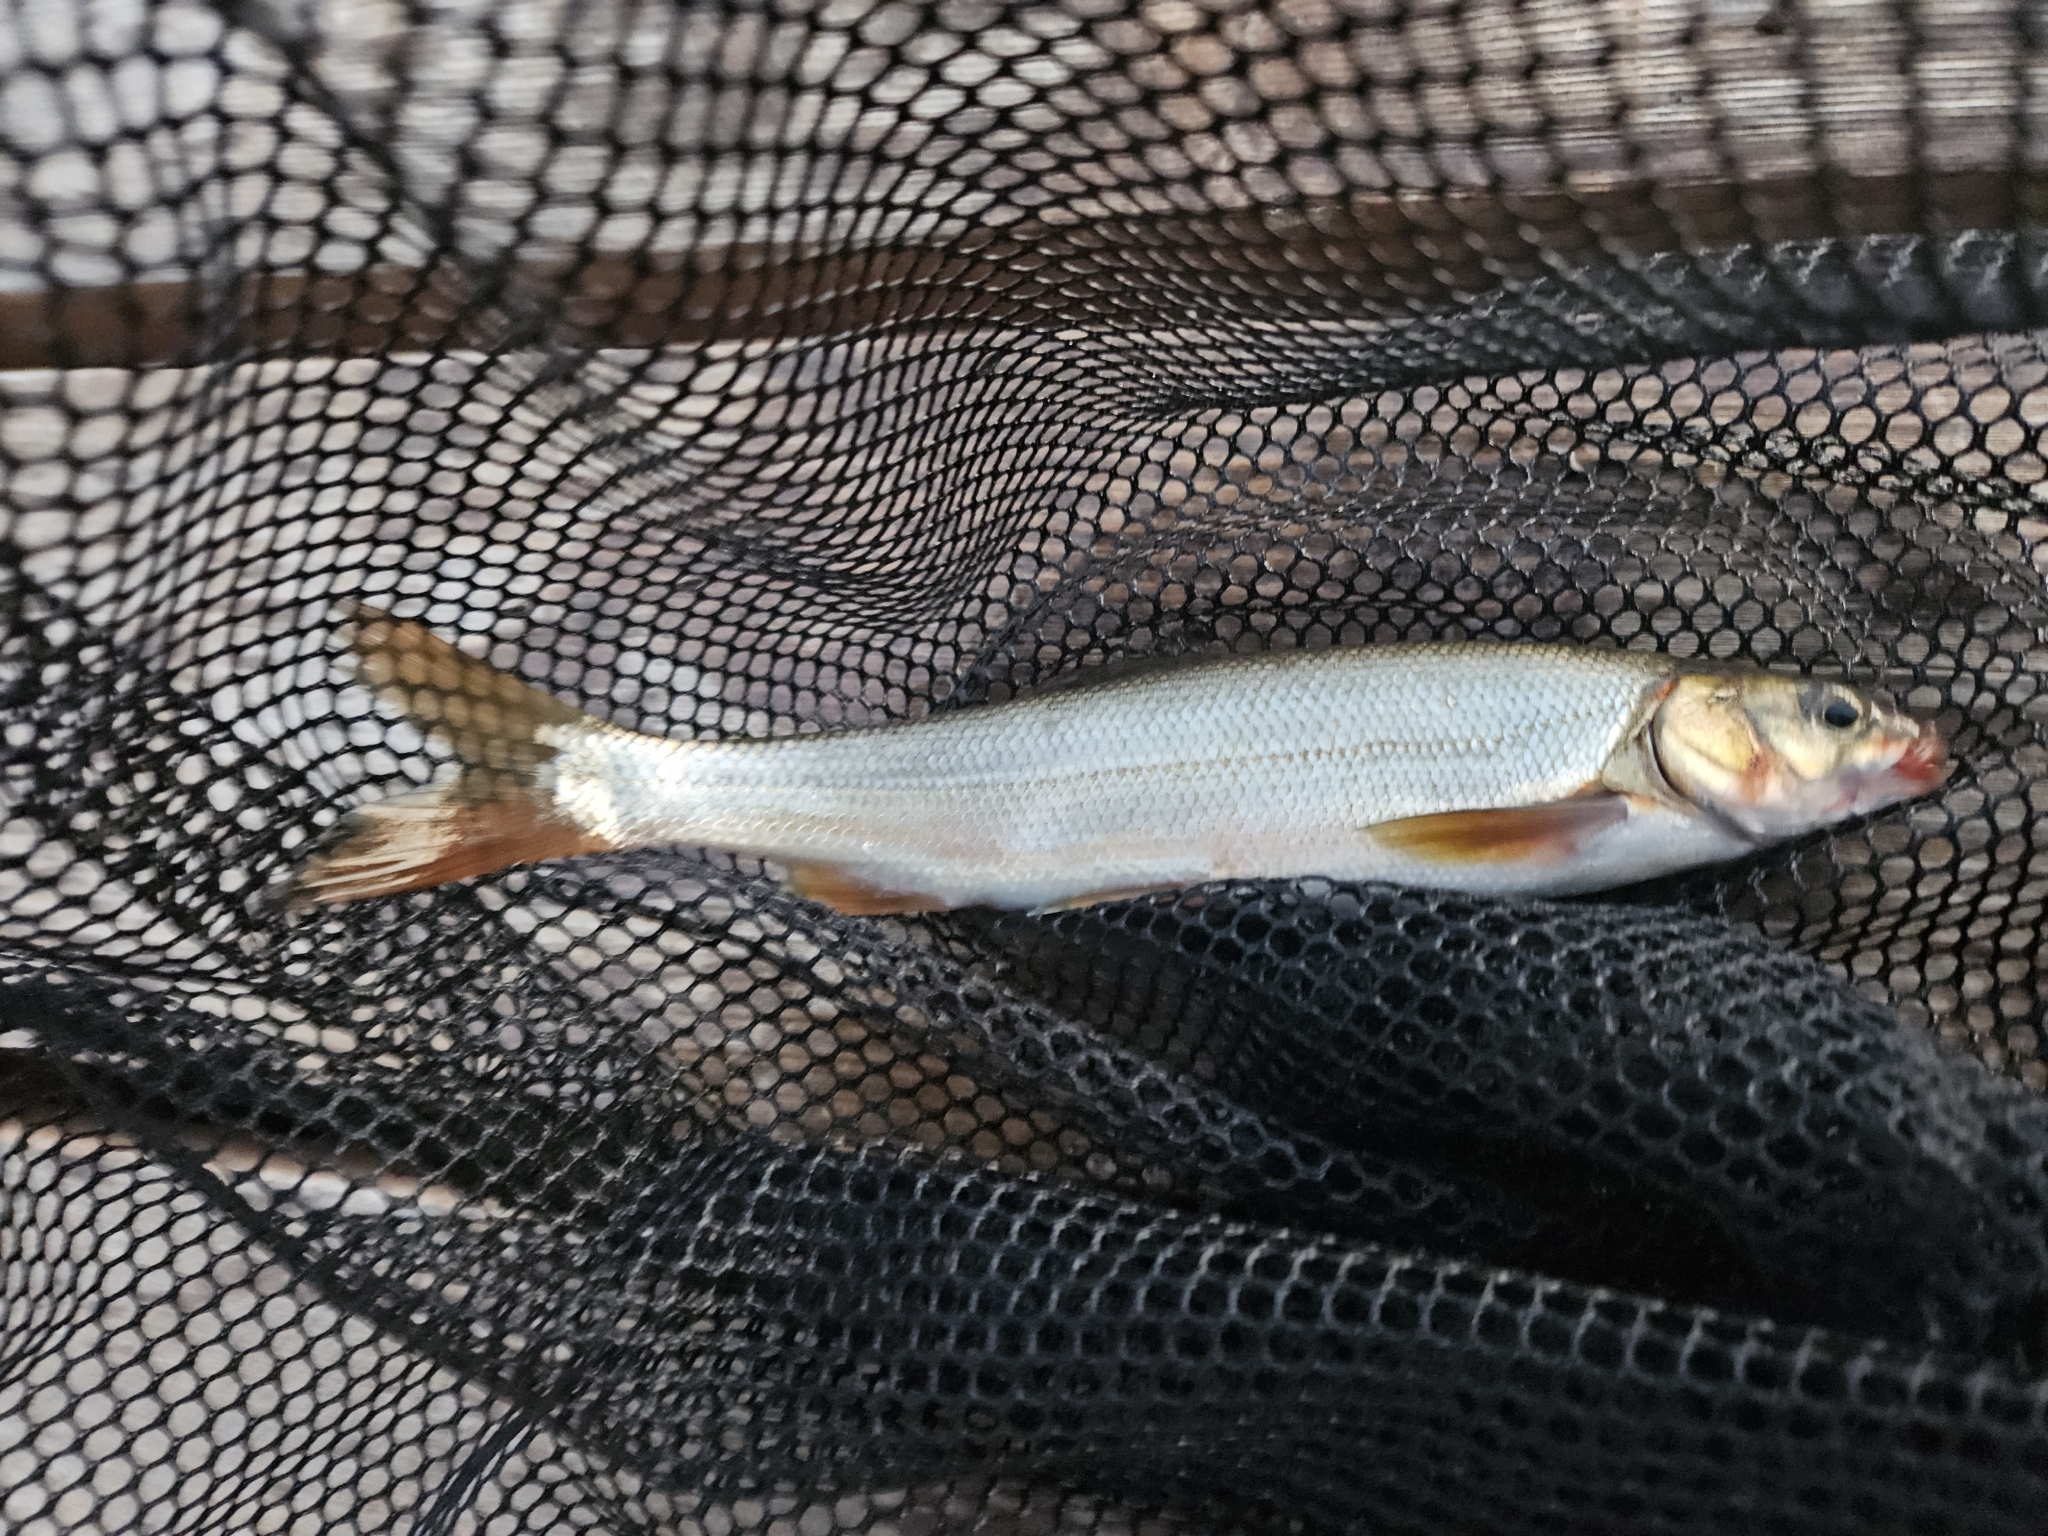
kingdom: Animalia
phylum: Chordata
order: Cypriniformes
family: Cyprinidae
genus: Mylocheilus
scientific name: Mylocheilus caurinus
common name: Peamouth
